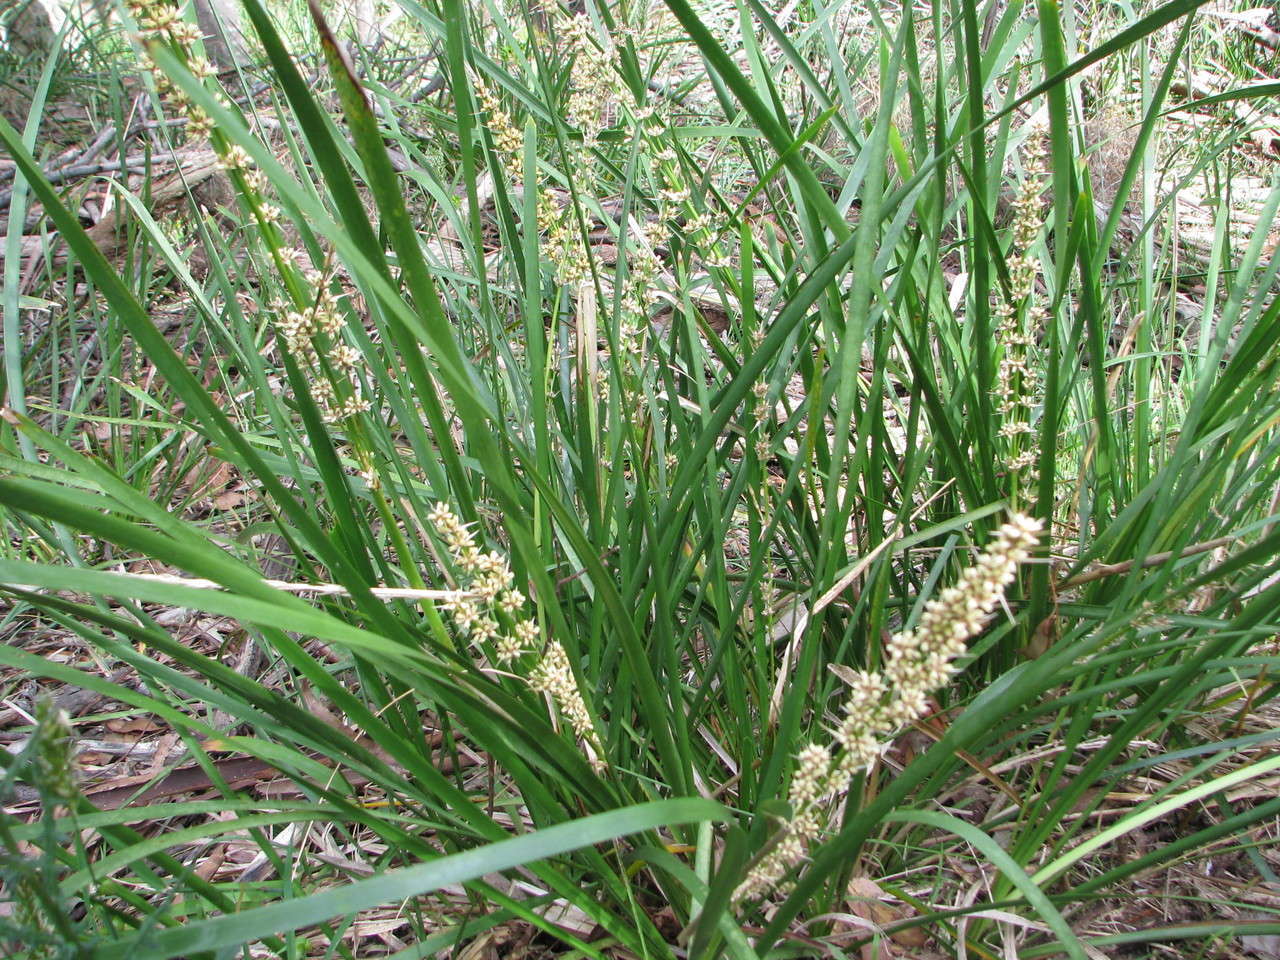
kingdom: Plantae
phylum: Tracheophyta
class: Liliopsida
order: Asparagales
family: Asparagaceae
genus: Lomandra
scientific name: Lomandra longifolia
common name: Longleaf mat-rush
